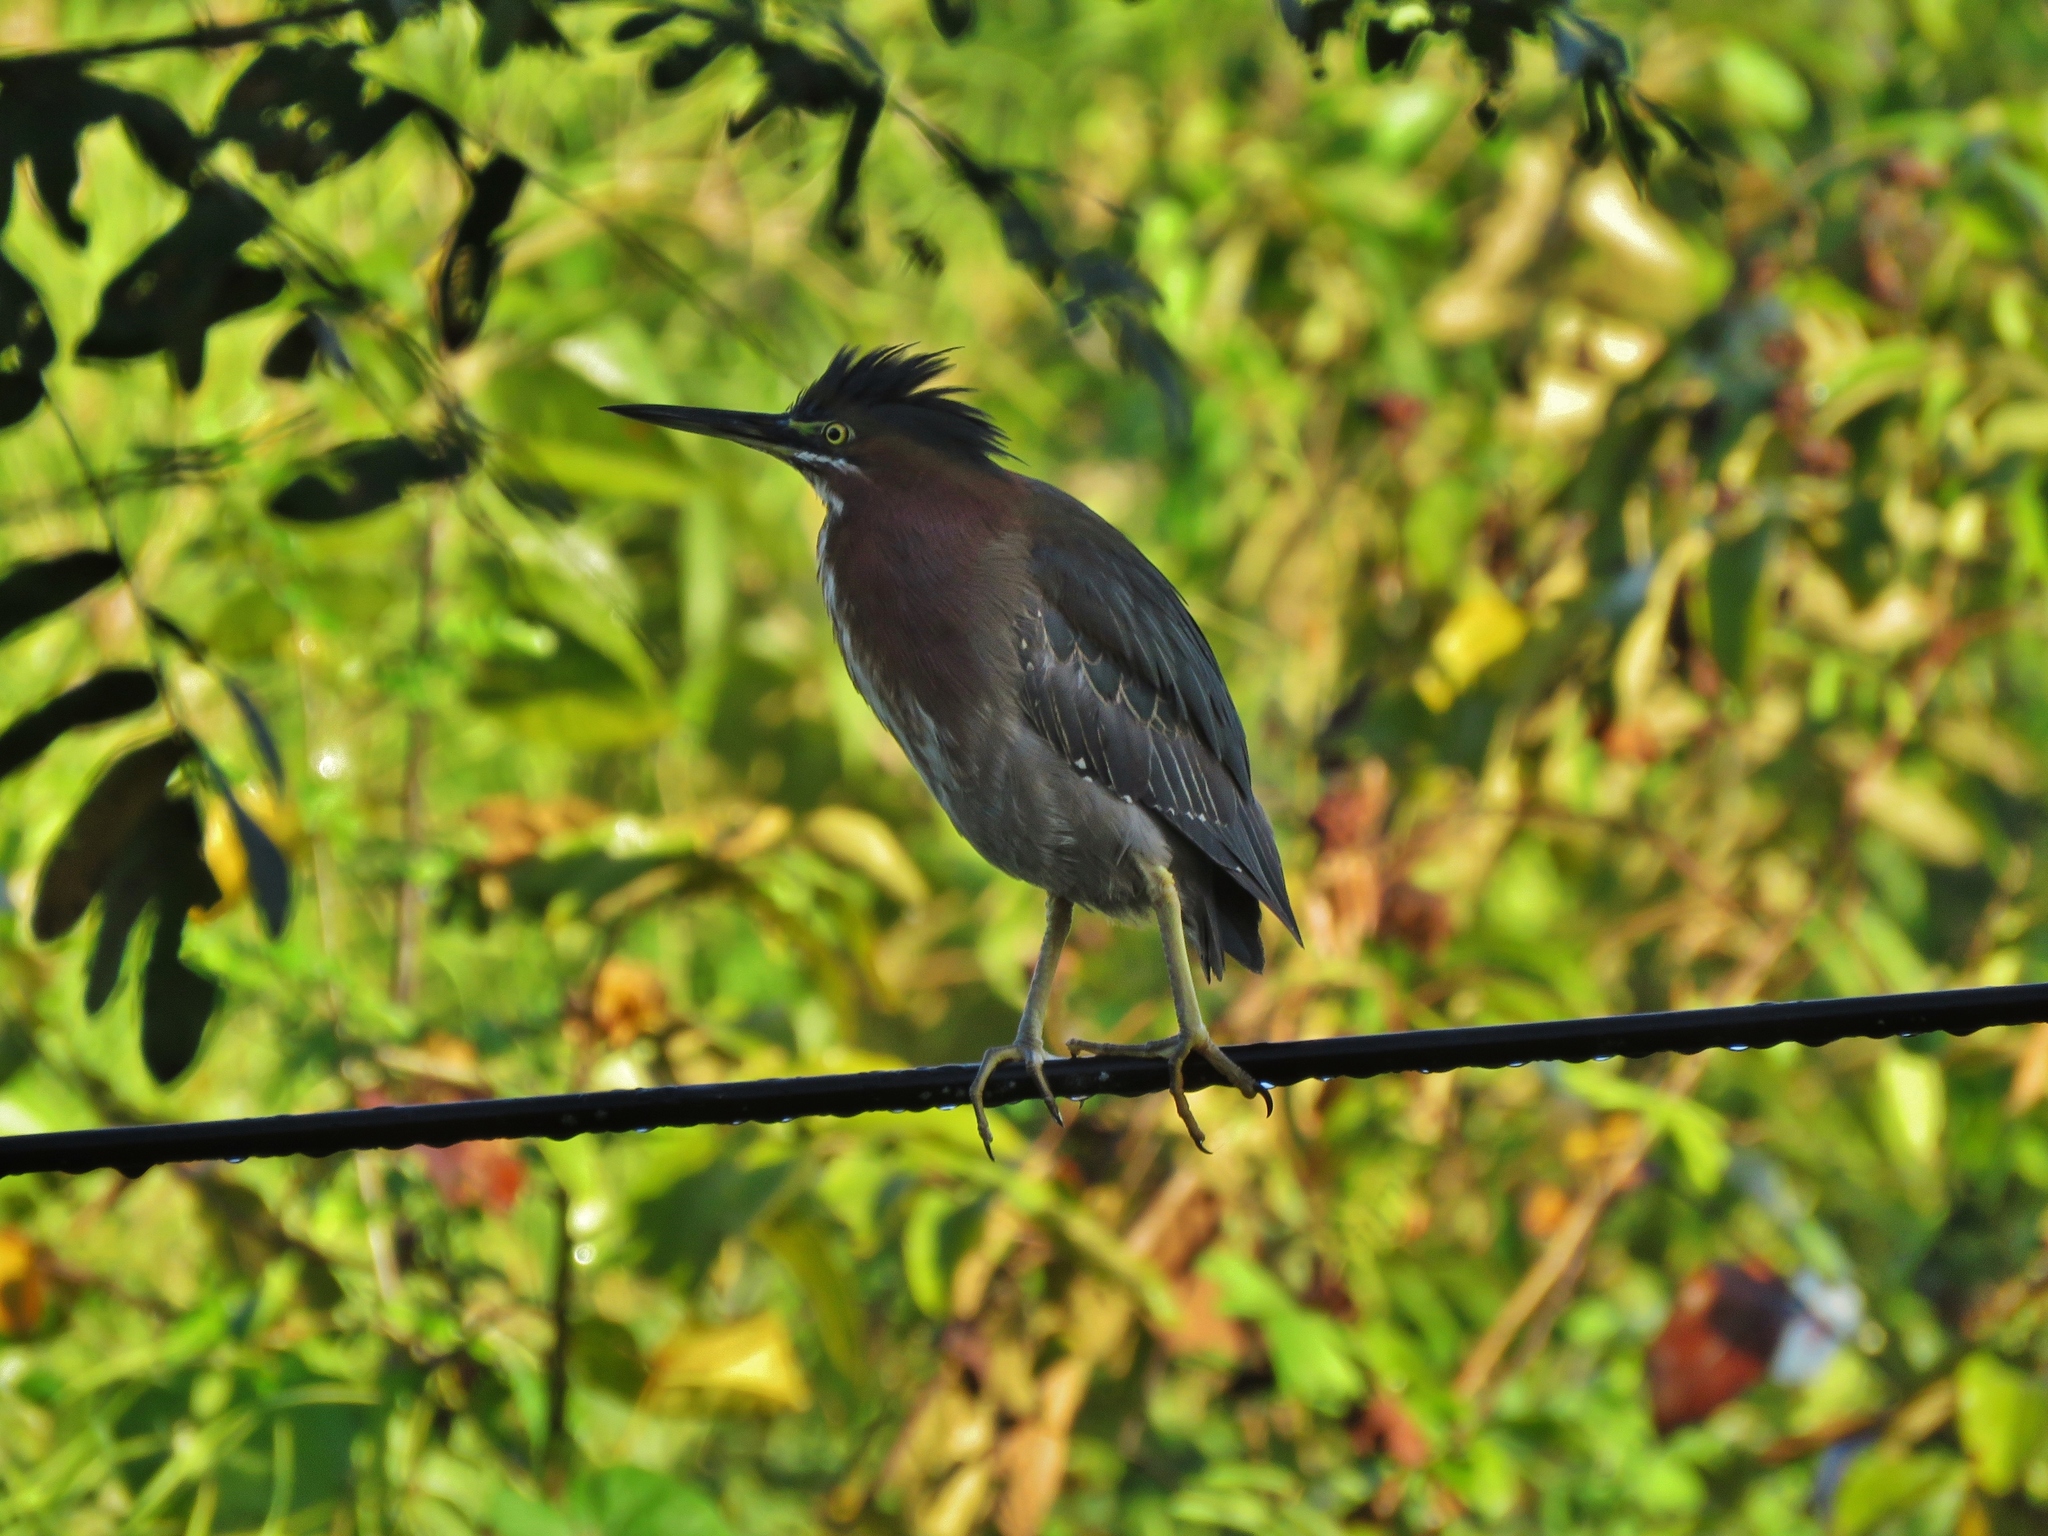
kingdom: Animalia
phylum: Chordata
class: Aves
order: Pelecaniformes
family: Ardeidae
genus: Butorides
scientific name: Butorides virescens
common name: Green heron
